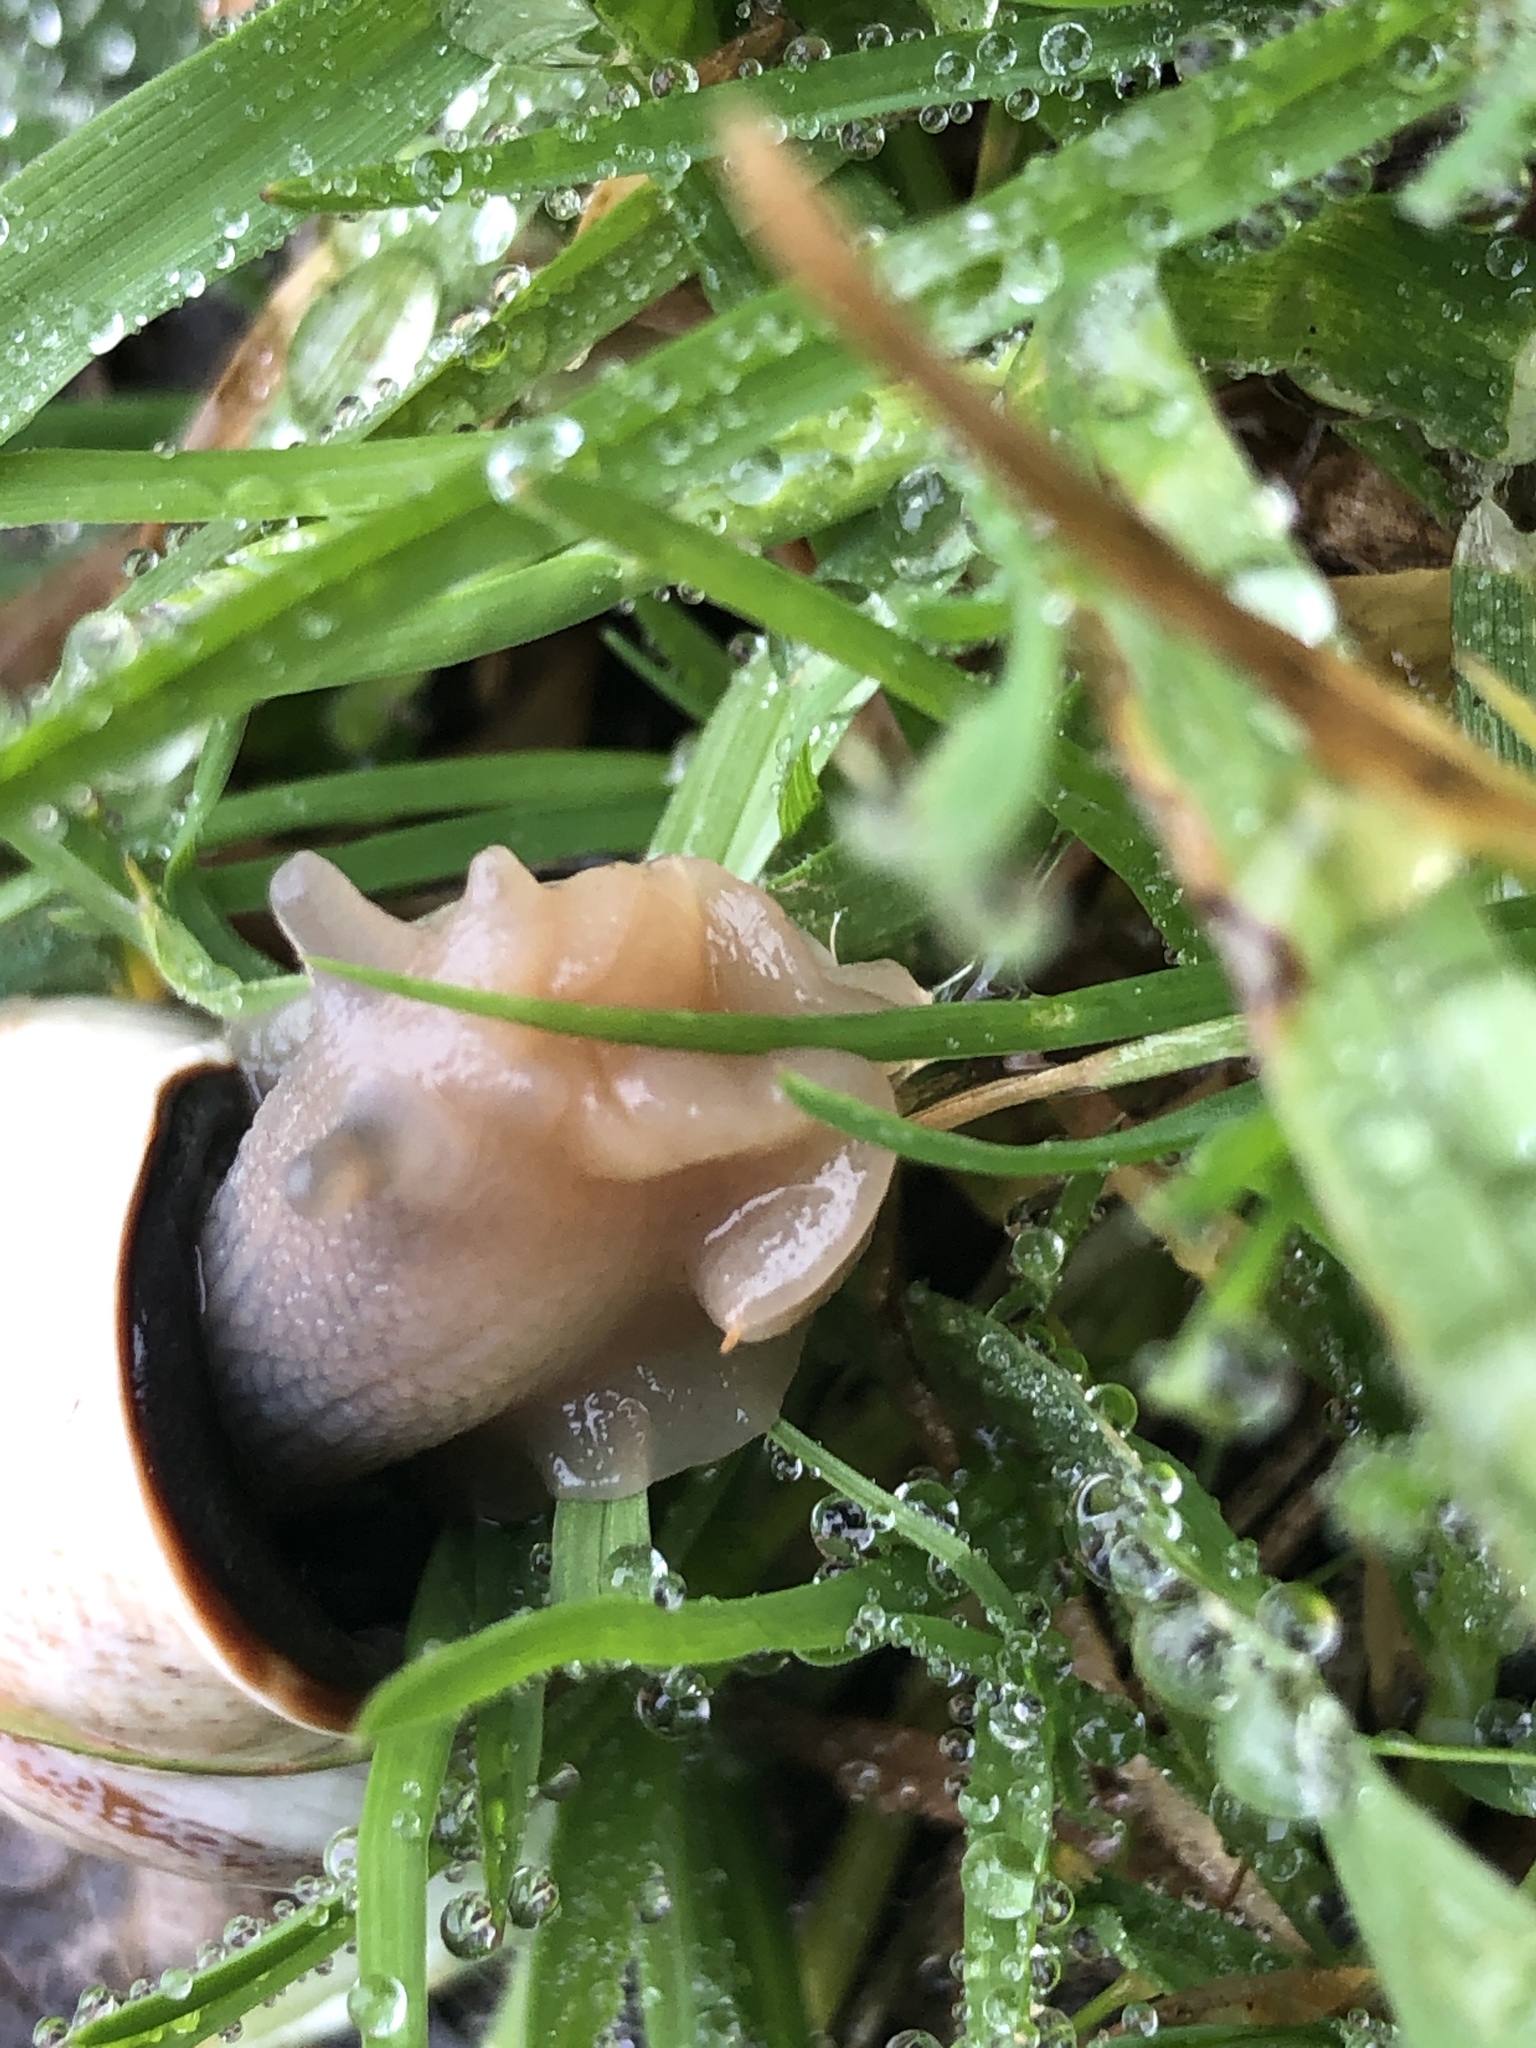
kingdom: Animalia
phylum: Mollusca
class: Gastropoda
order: Stylommatophora
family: Helicidae
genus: Otala
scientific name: Otala lactea
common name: Milk snail
